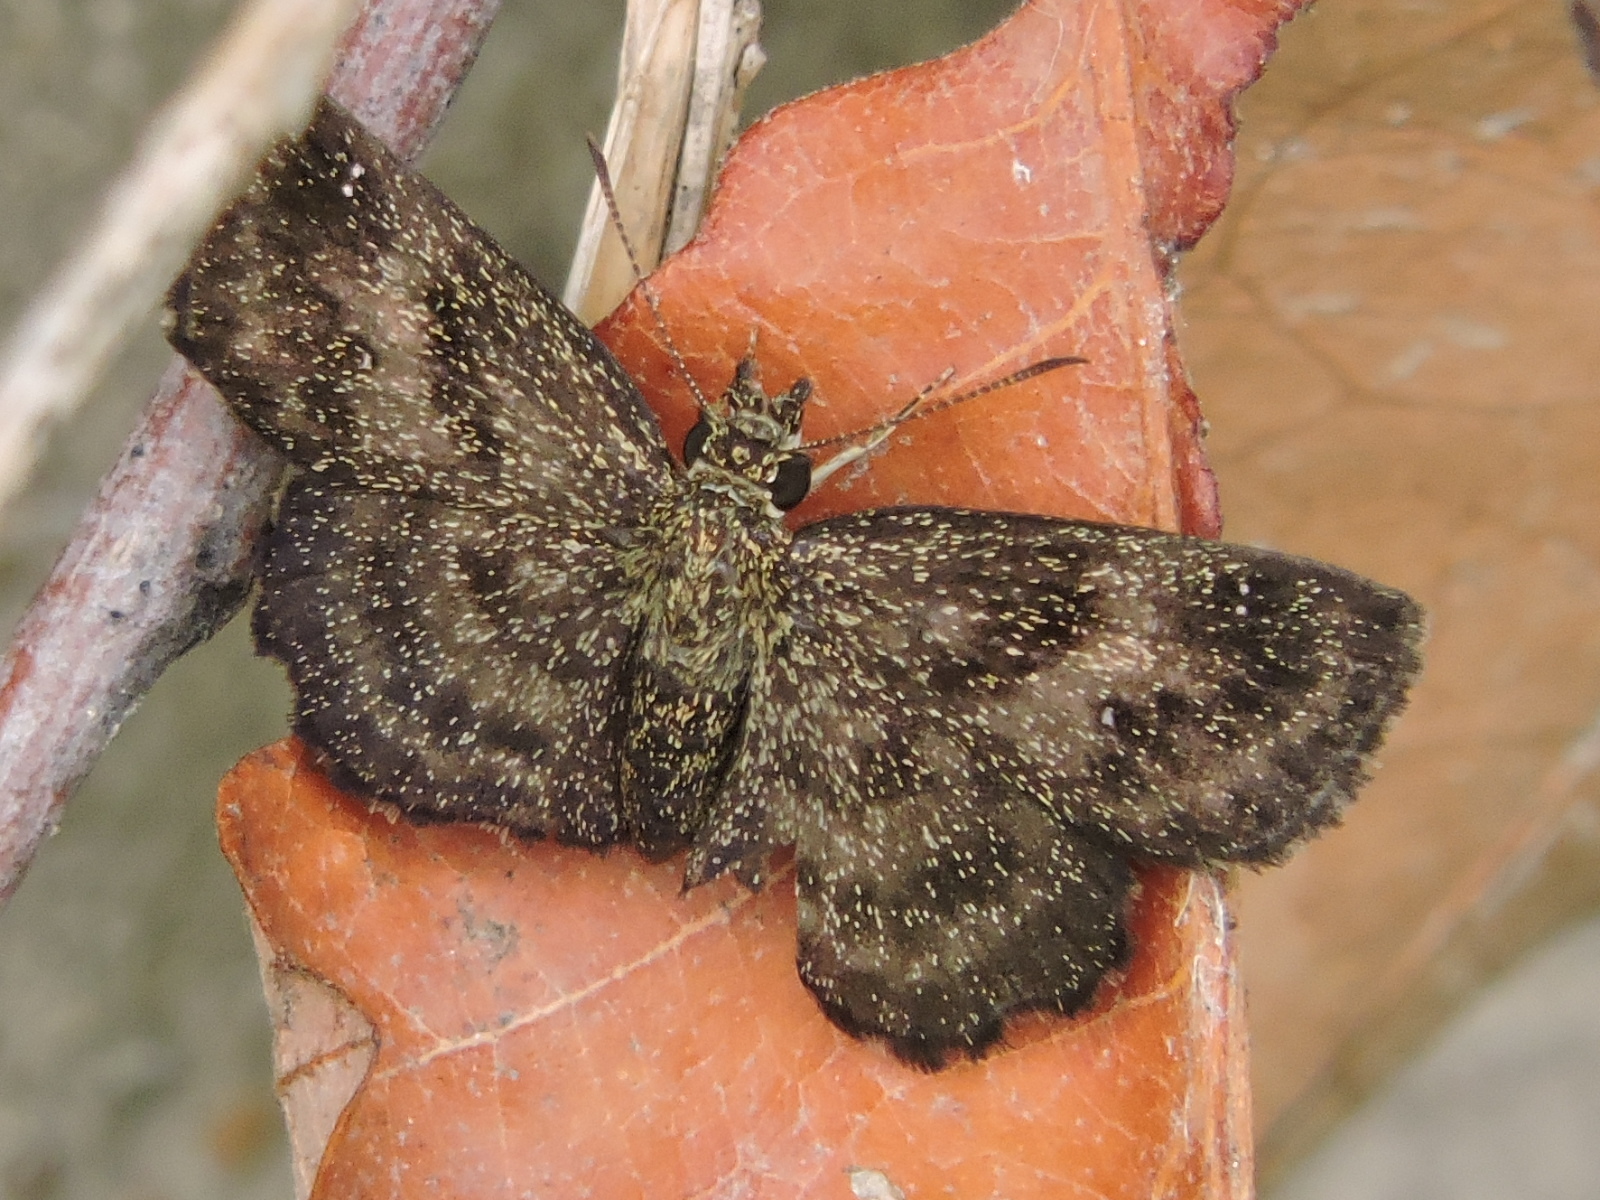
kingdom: Animalia
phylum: Arthropoda
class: Insecta
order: Lepidoptera
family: Hesperiidae
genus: Staphylus
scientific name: Staphylus mazans
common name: Mazans scallopwing
